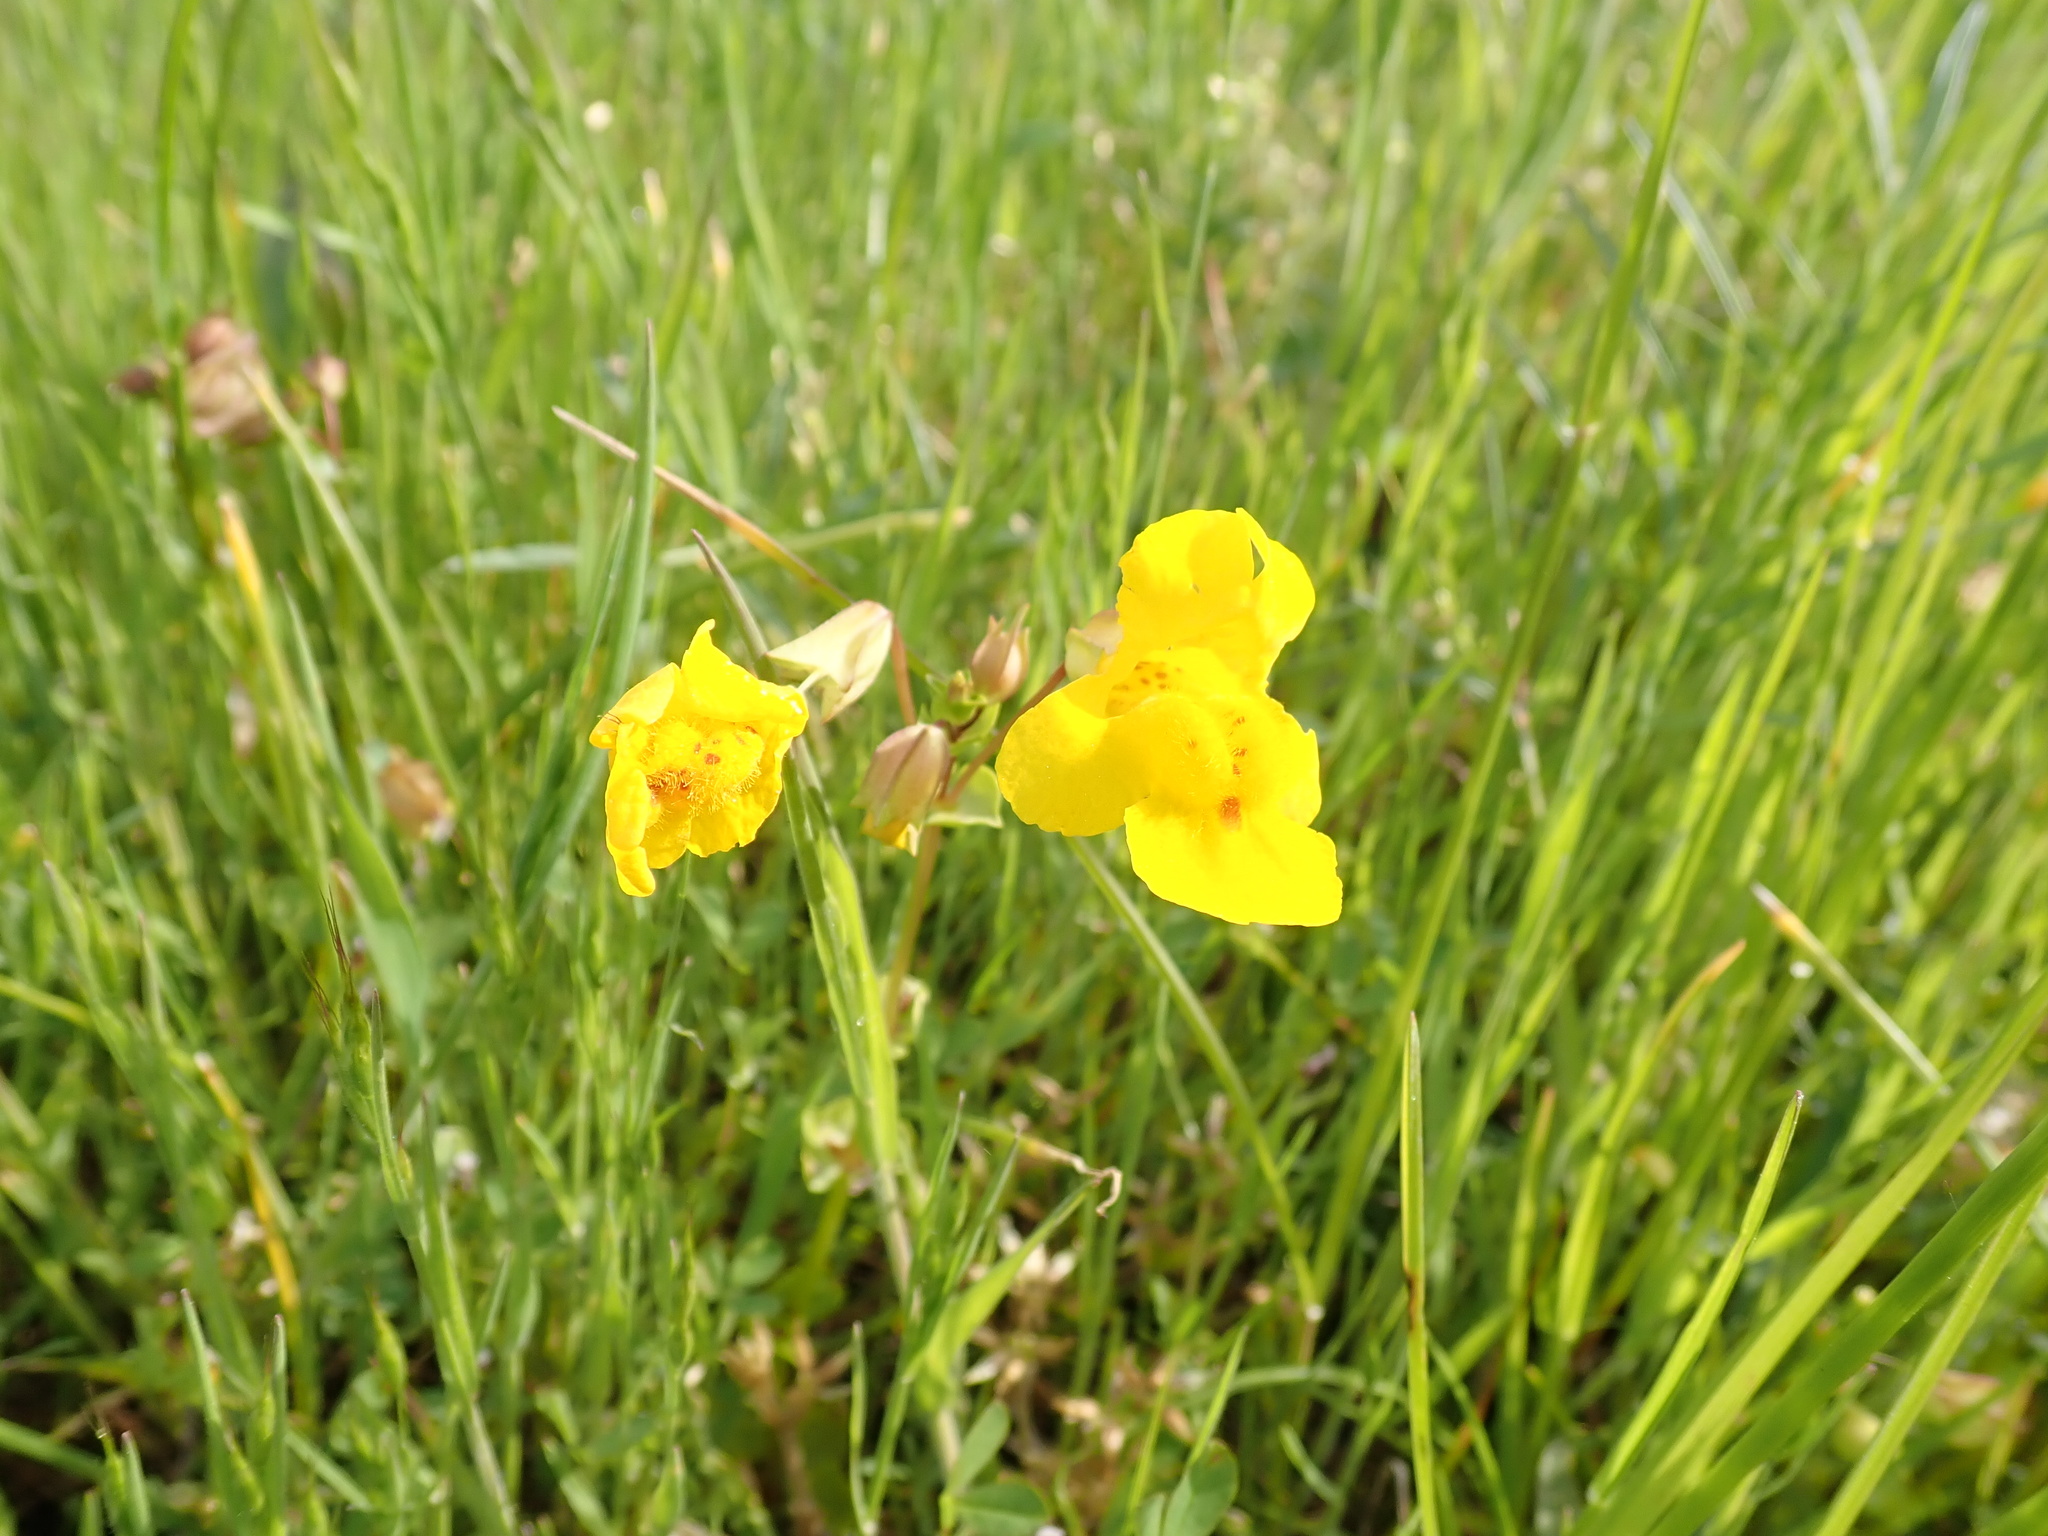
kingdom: Plantae
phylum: Tracheophyta
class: Magnoliopsida
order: Lamiales
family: Phrymaceae
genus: Erythranthe
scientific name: Erythranthe guttata
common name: Monkeyflower
